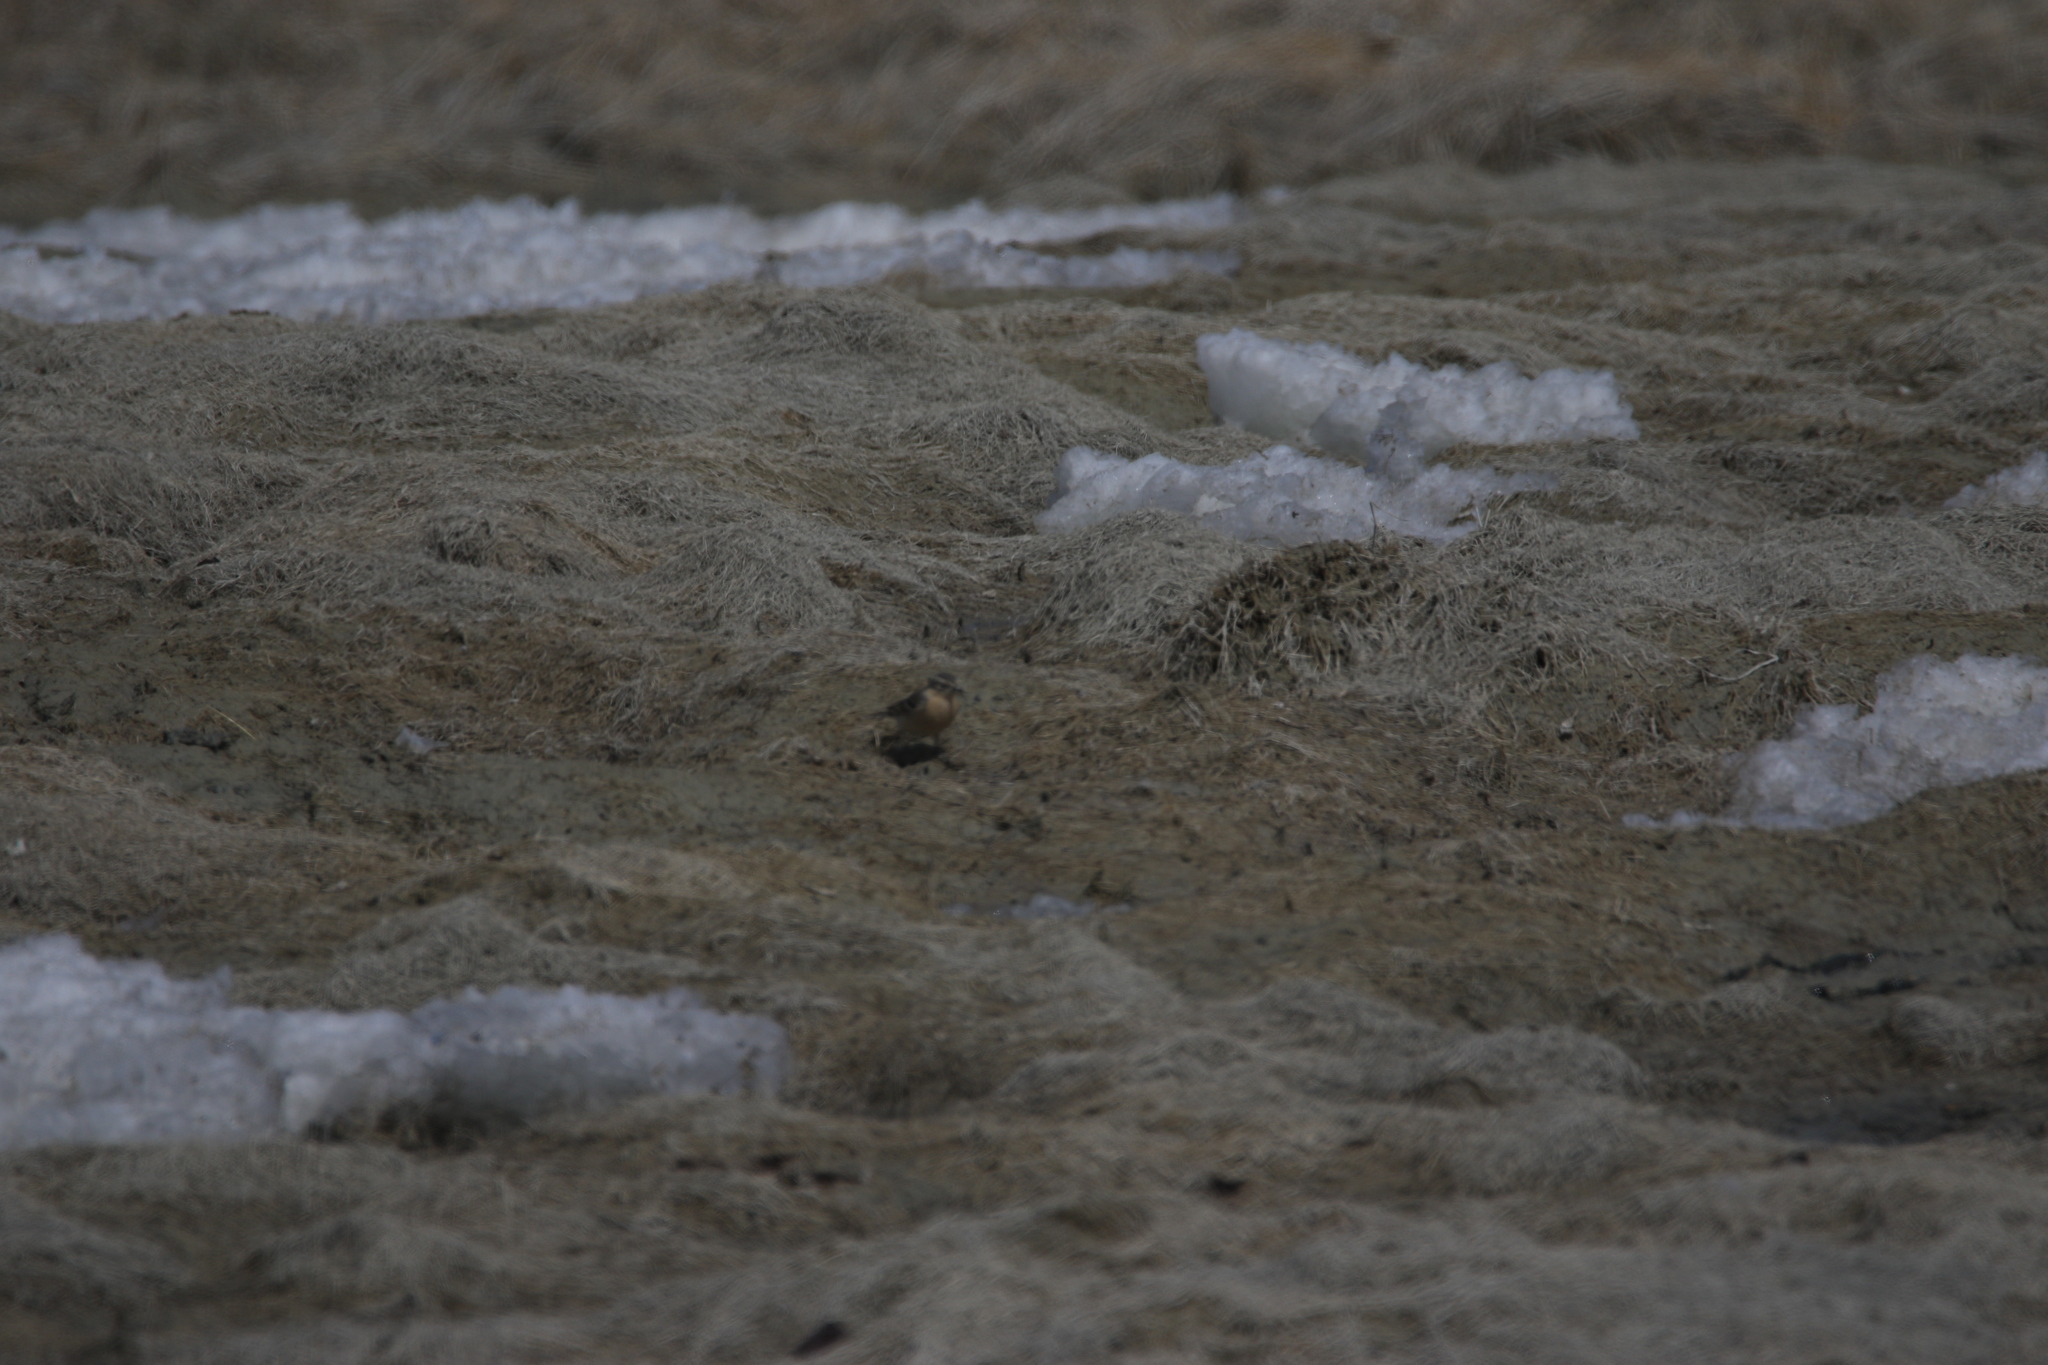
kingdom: Animalia
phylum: Chordata
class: Aves
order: Passeriformes
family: Motacillidae
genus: Anthus
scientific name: Anthus spinoletta
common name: Water pipit
